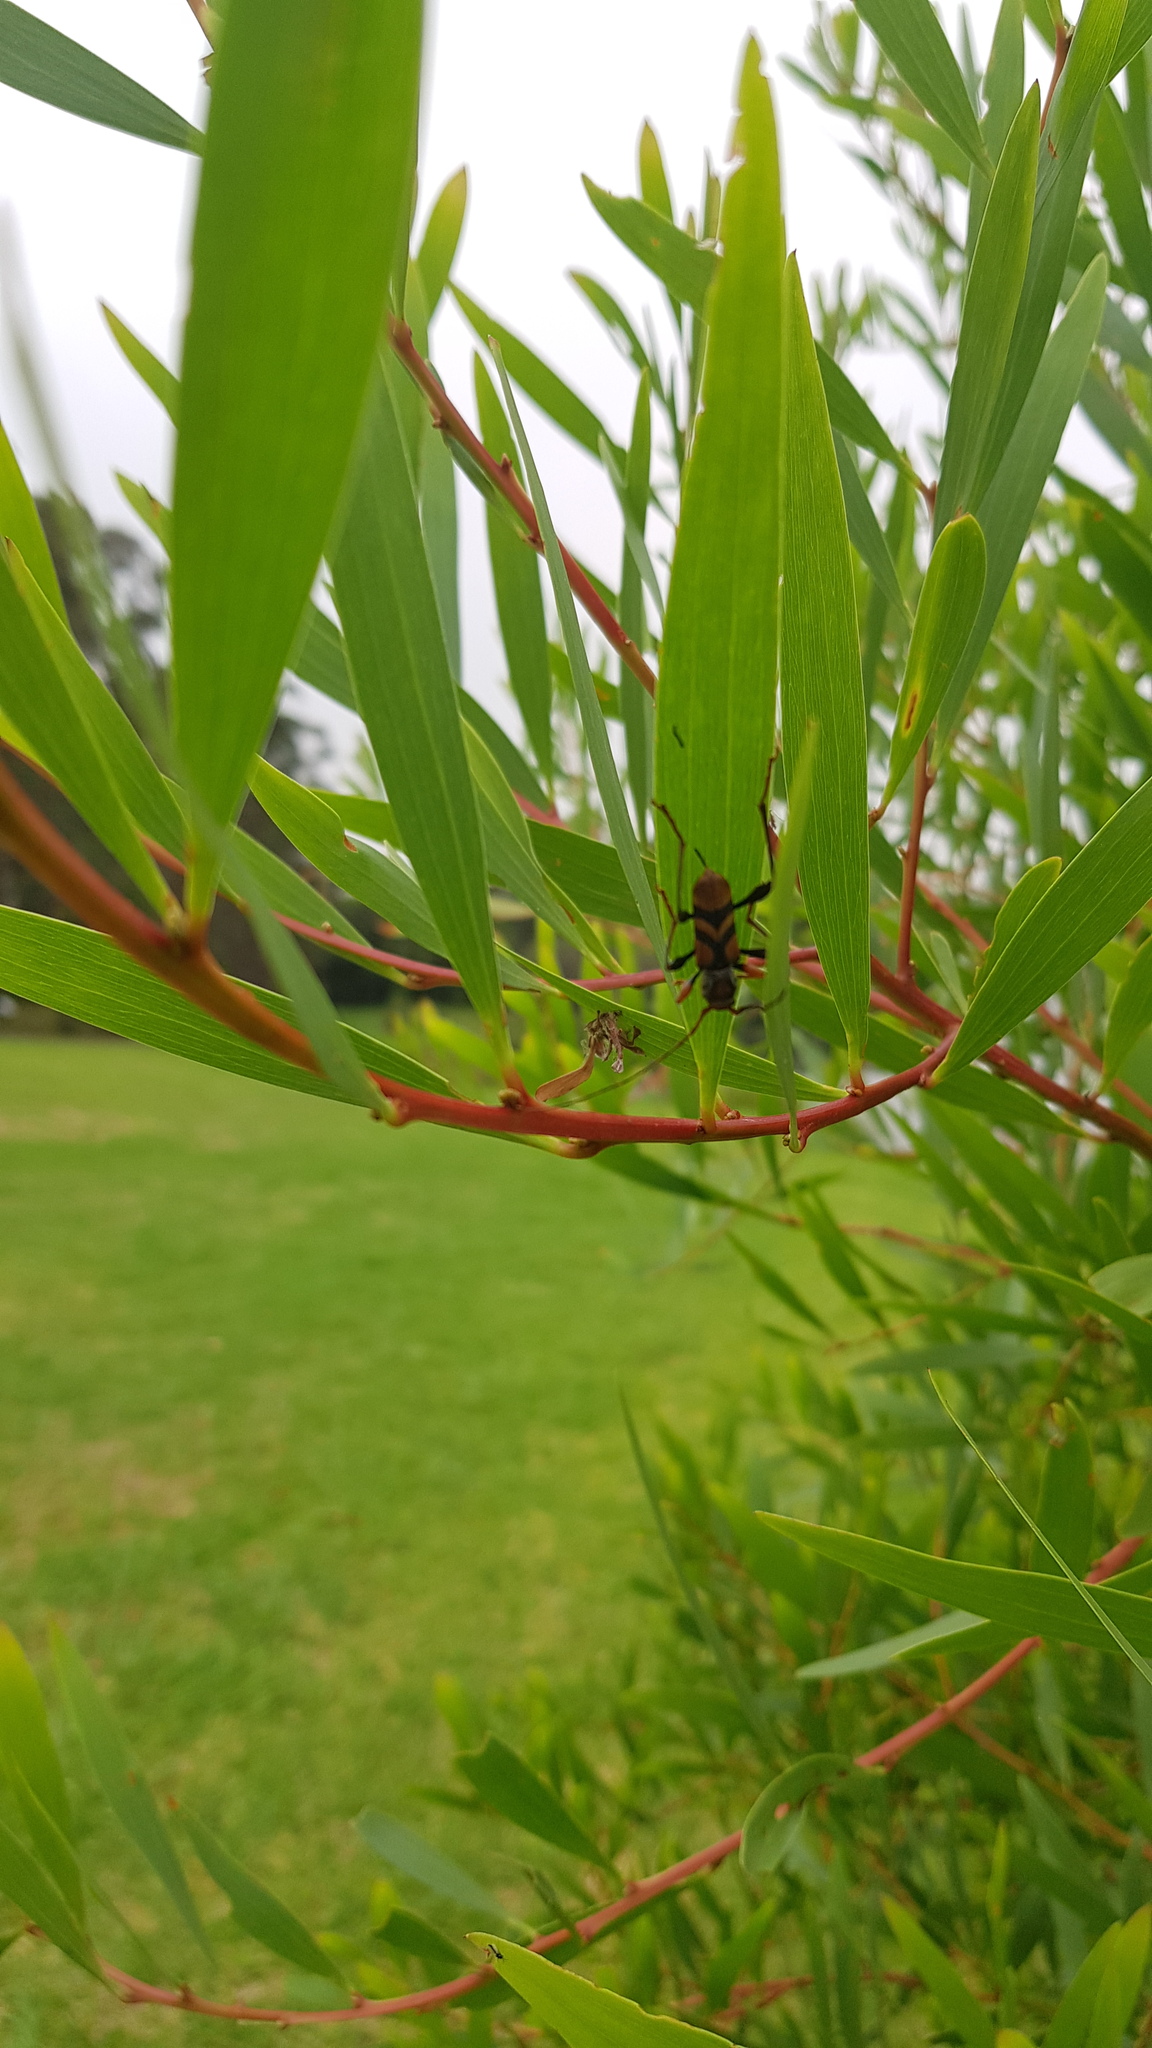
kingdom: Animalia
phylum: Arthropoda
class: Insecta
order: Coleoptera
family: Cerambycidae
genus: Aridaeus
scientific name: Aridaeus thoracicus
